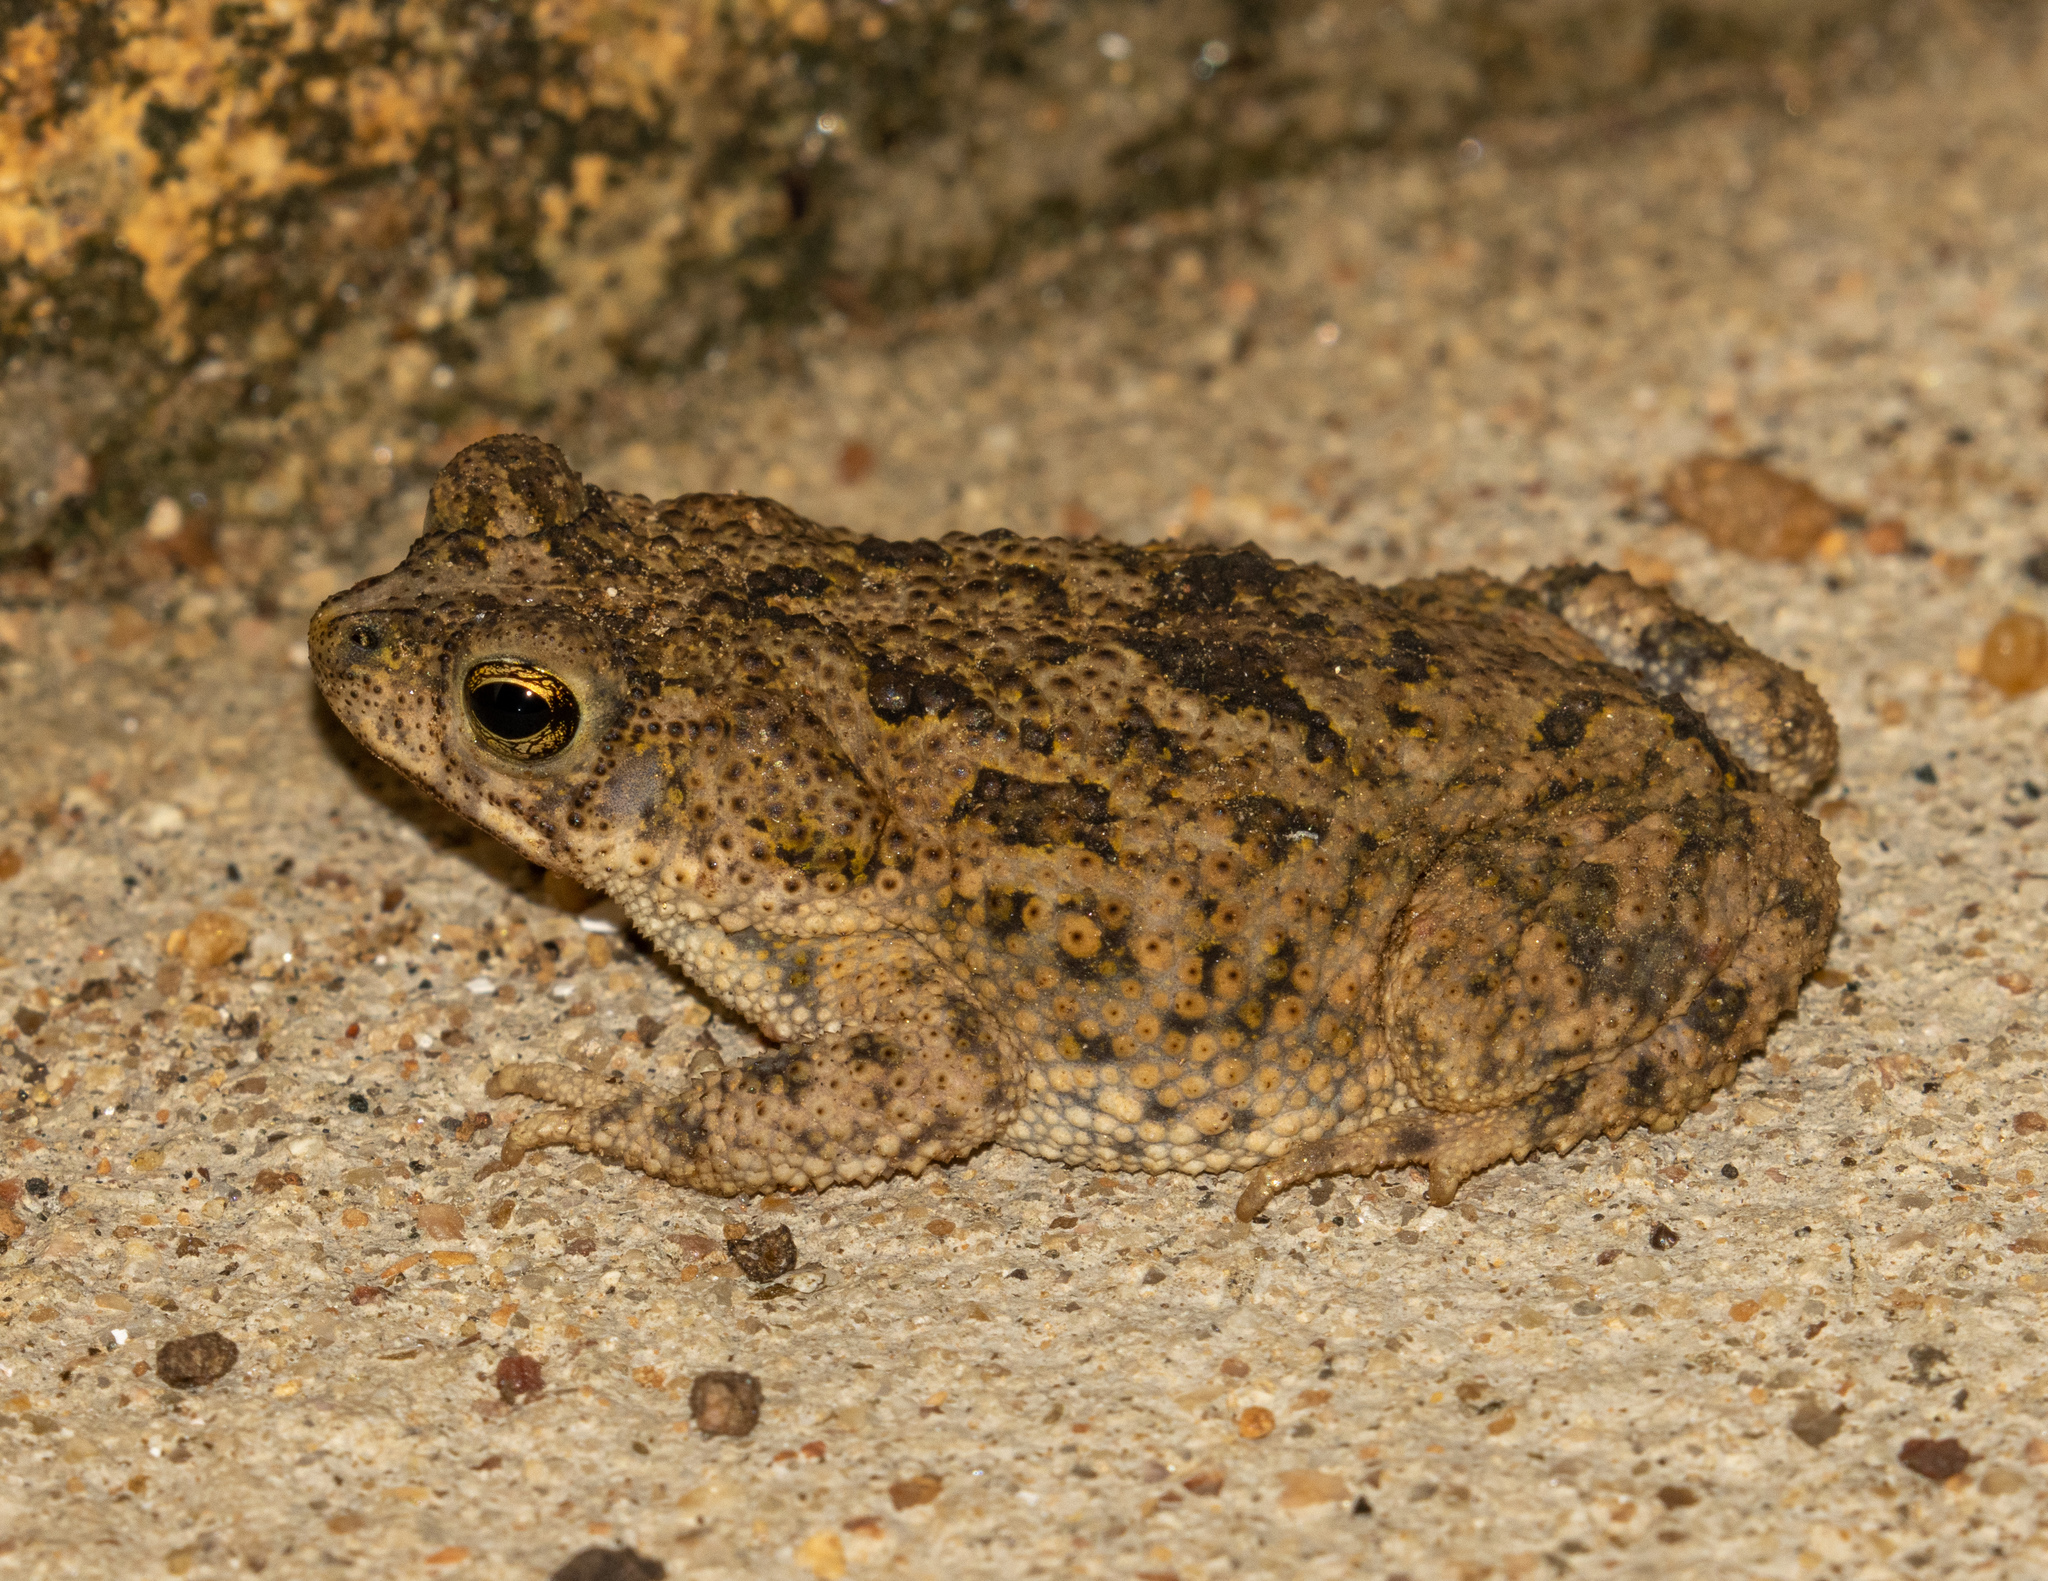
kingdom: Animalia
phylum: Chordata
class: Amphibia
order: Anura
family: Bufonidae
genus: Rhinella
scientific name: Rhinella granulosa
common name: Common lesser toad
